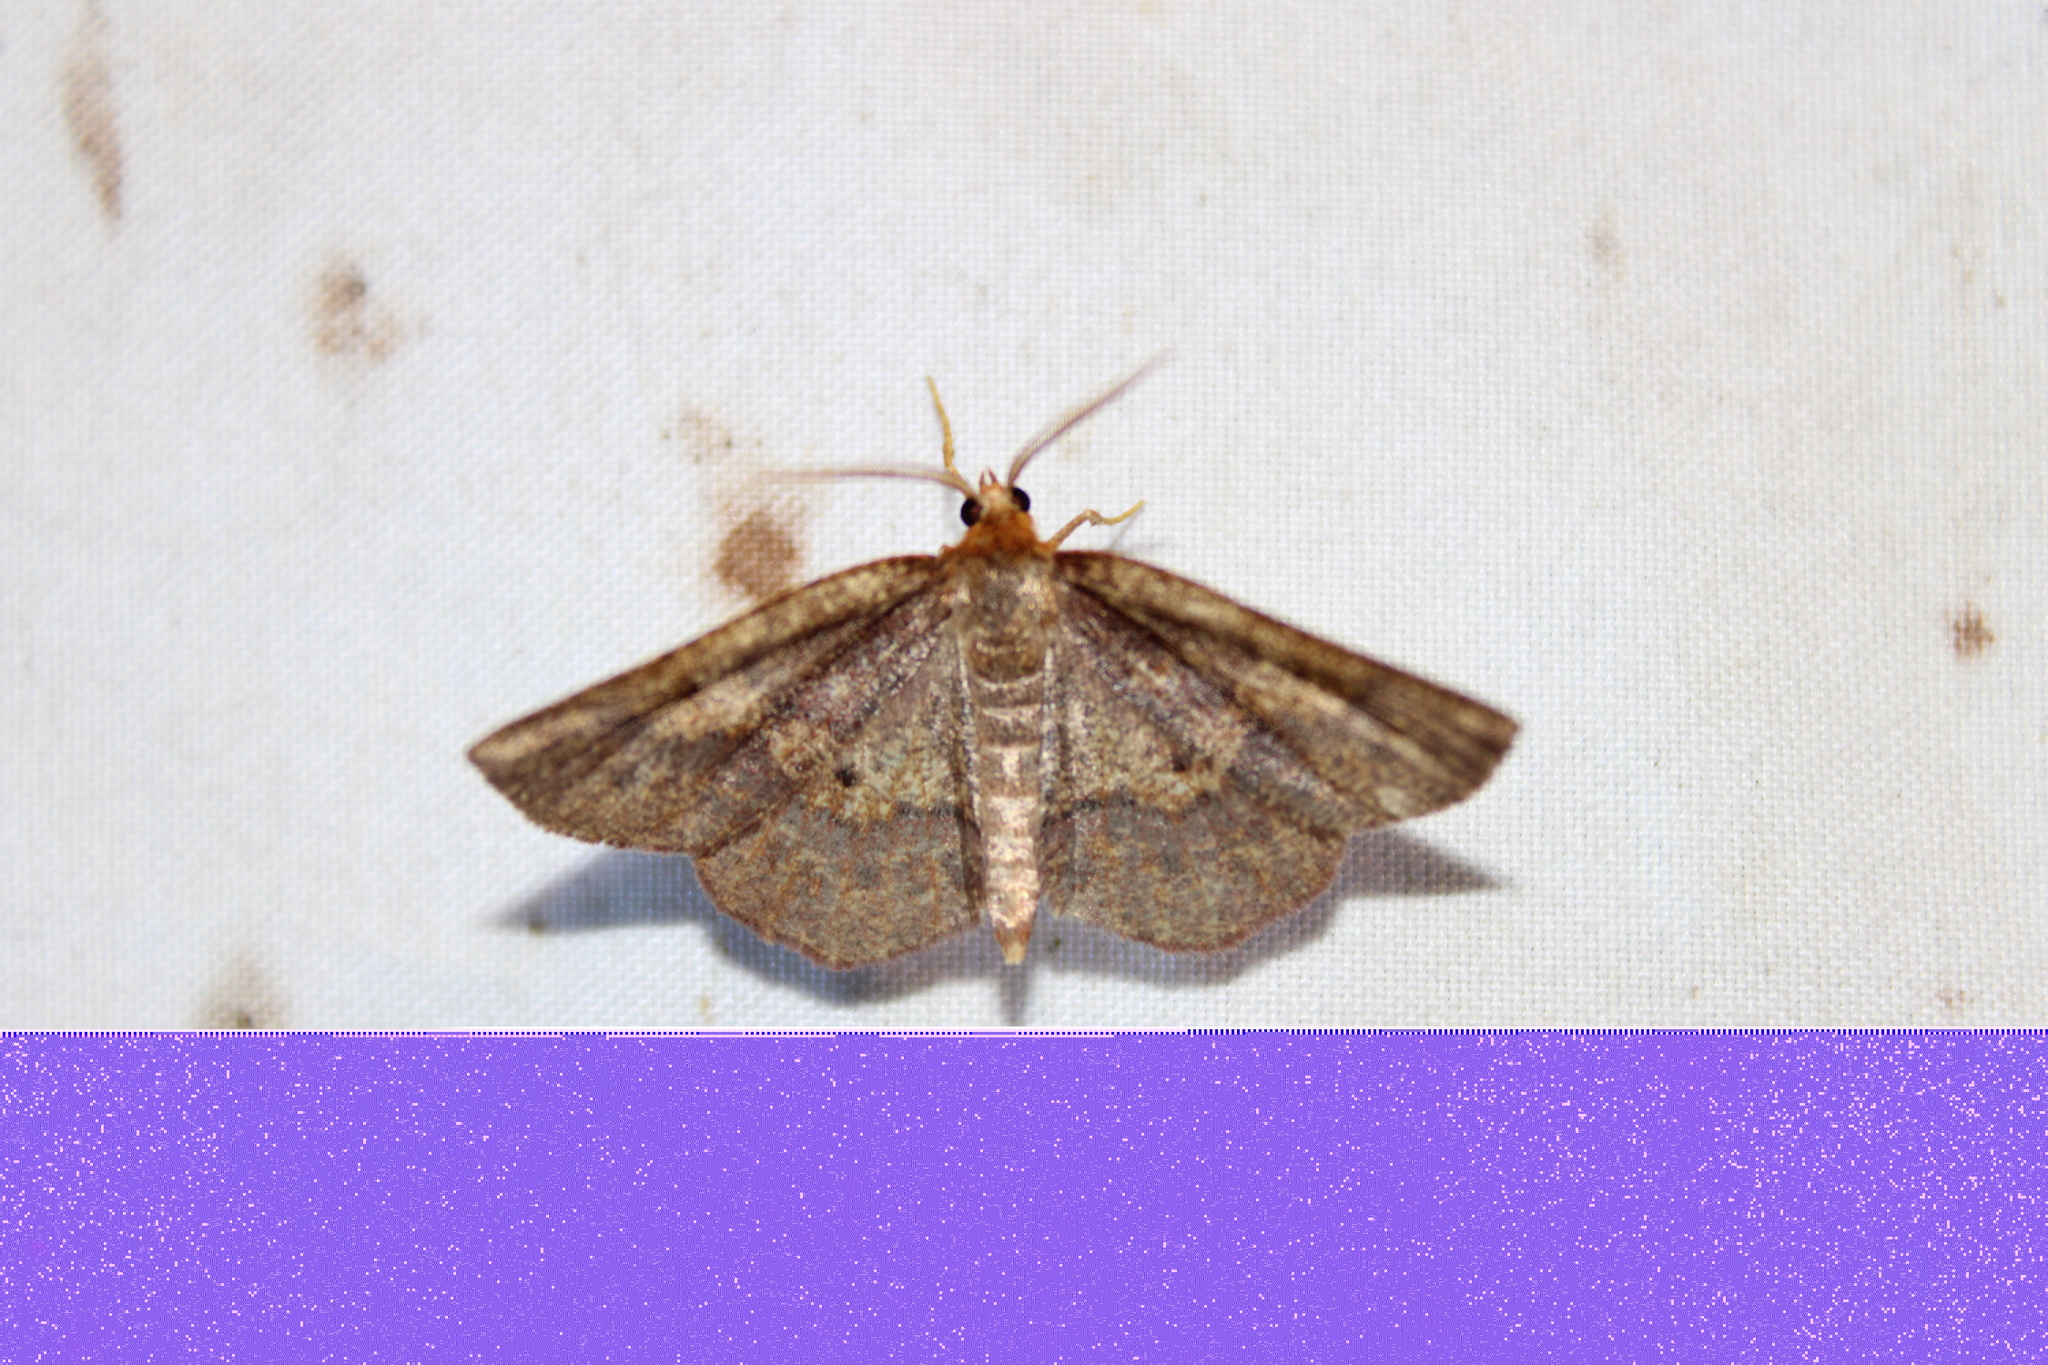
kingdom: Animalia
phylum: Arthropoda
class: Insecta
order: Lepidoptera
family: Geometridae
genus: Metarranthis
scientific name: Metarranthis angularia
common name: Angled metarranthis moth
